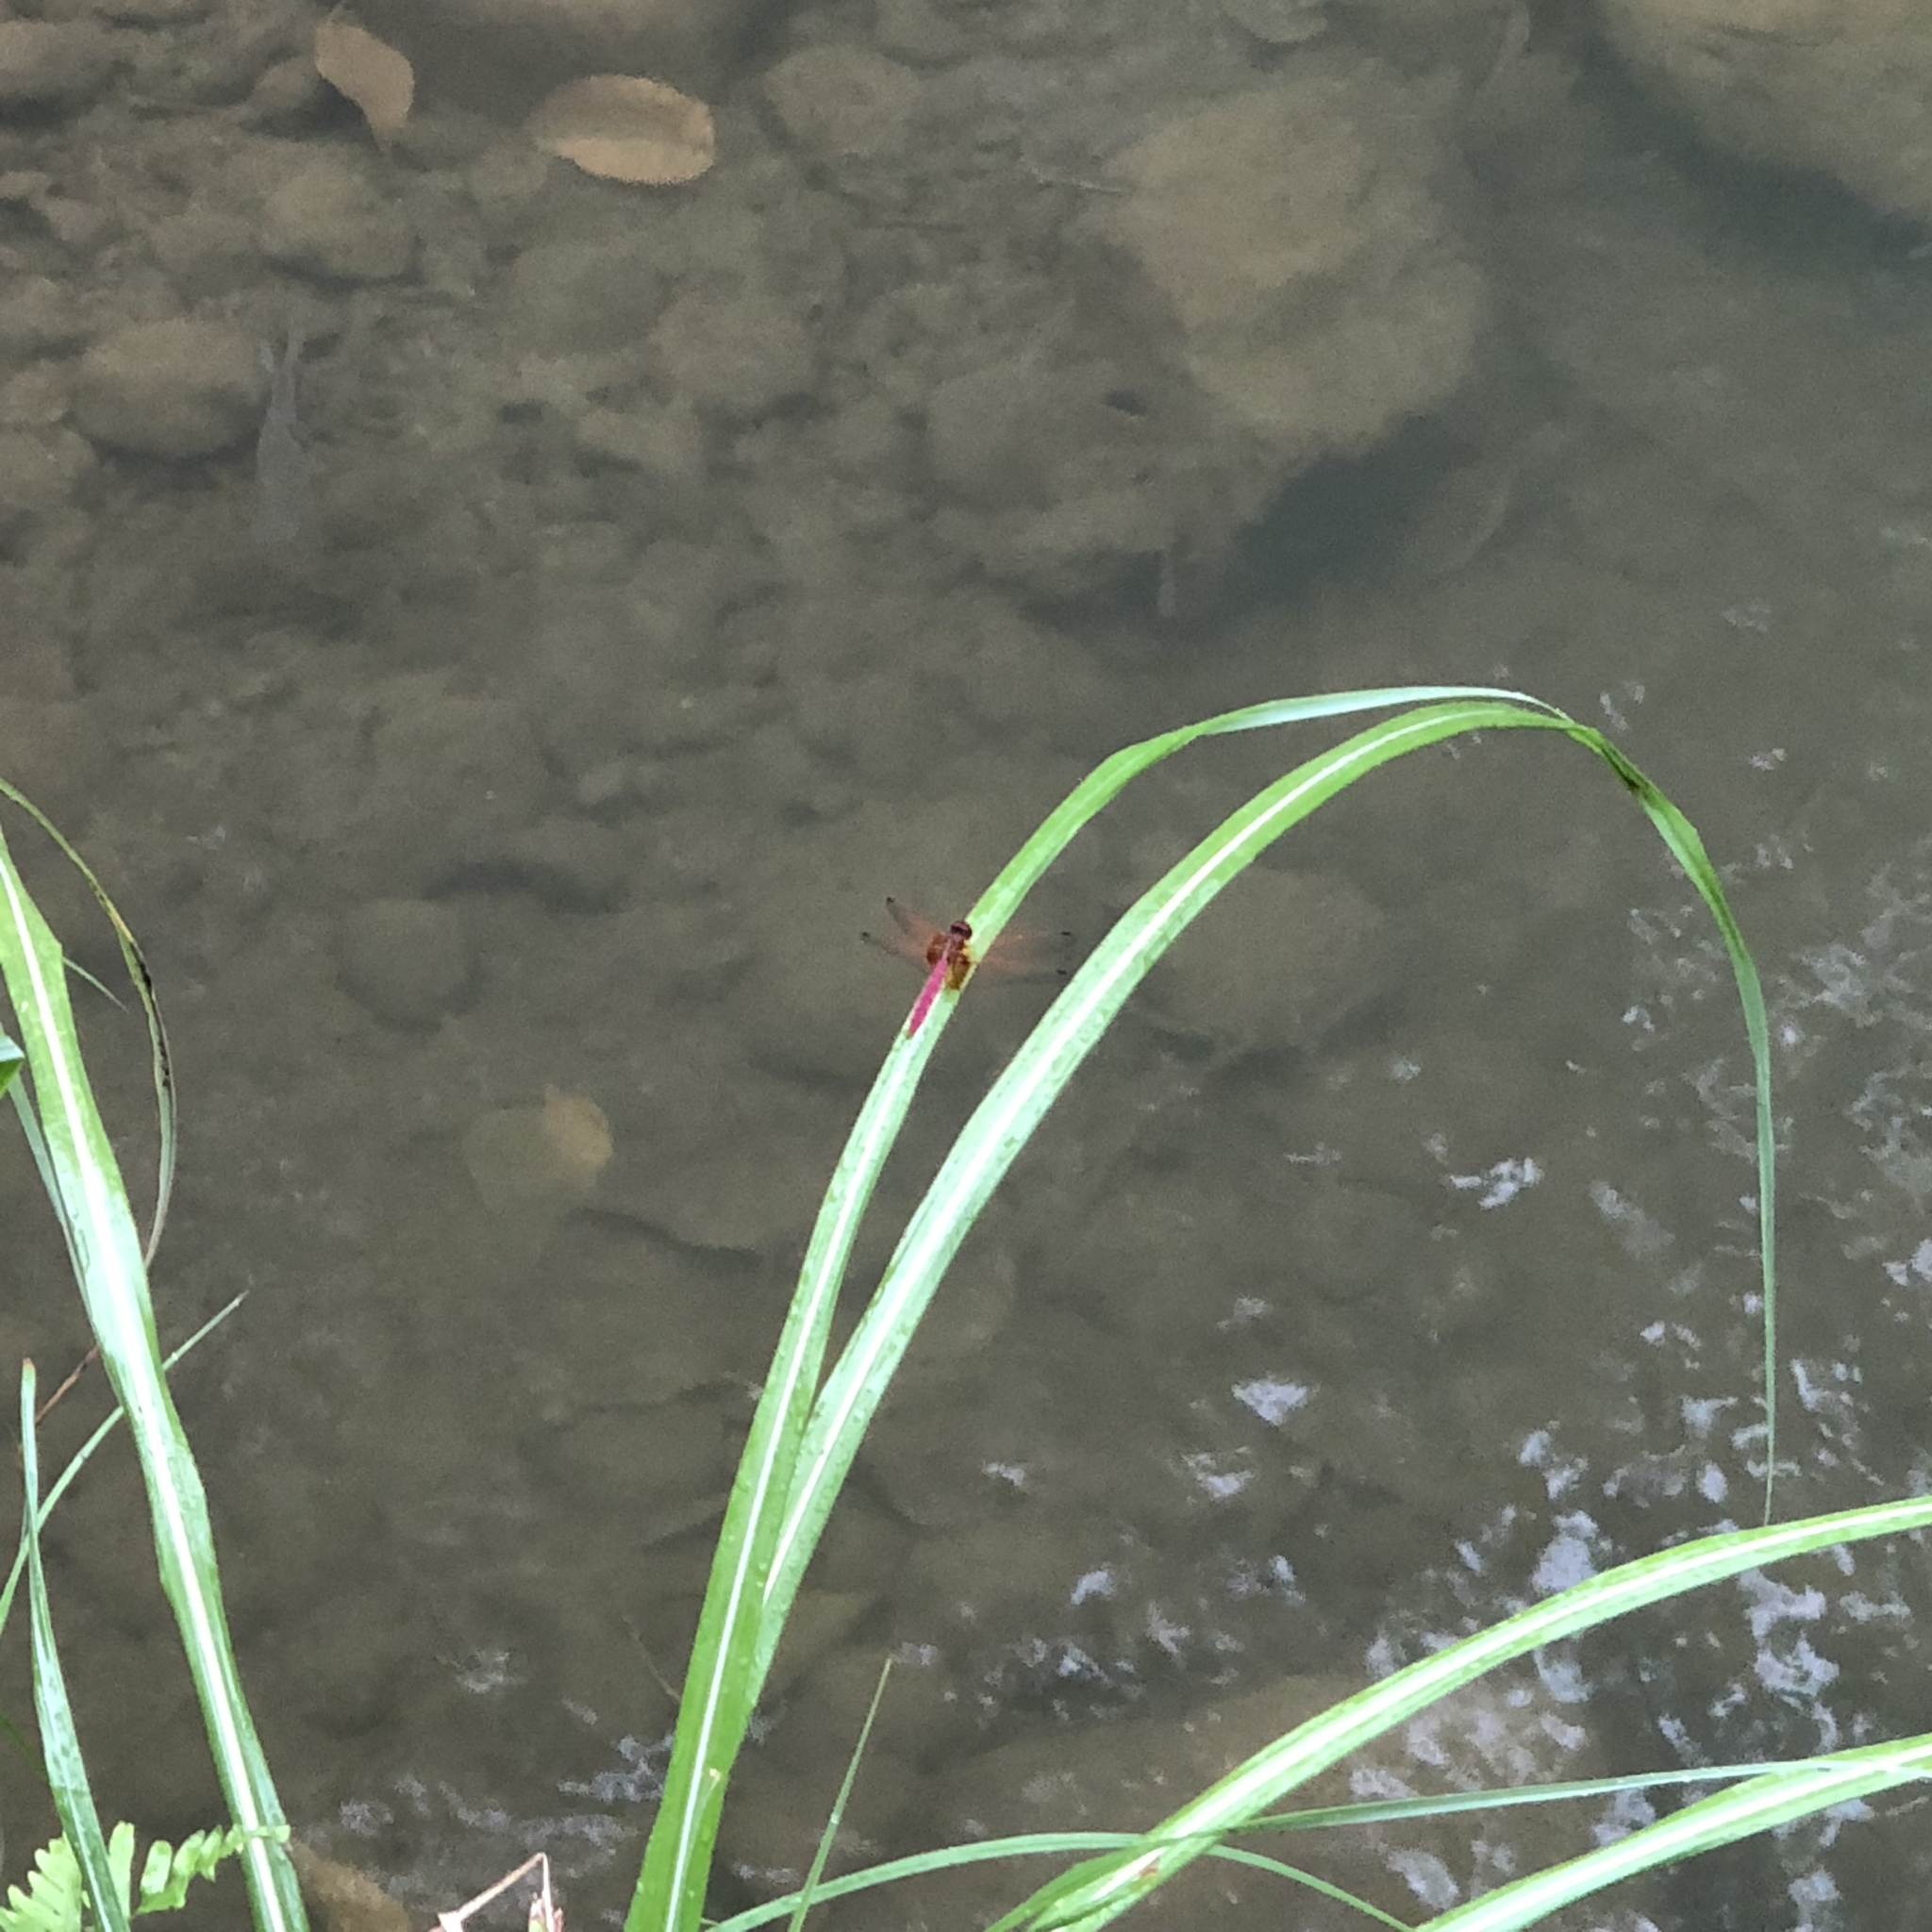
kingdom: Animalia
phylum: Arthropoda
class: Insecta
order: Odonata
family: Libellulidae
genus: Trithemis
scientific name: Trithemis aurora
